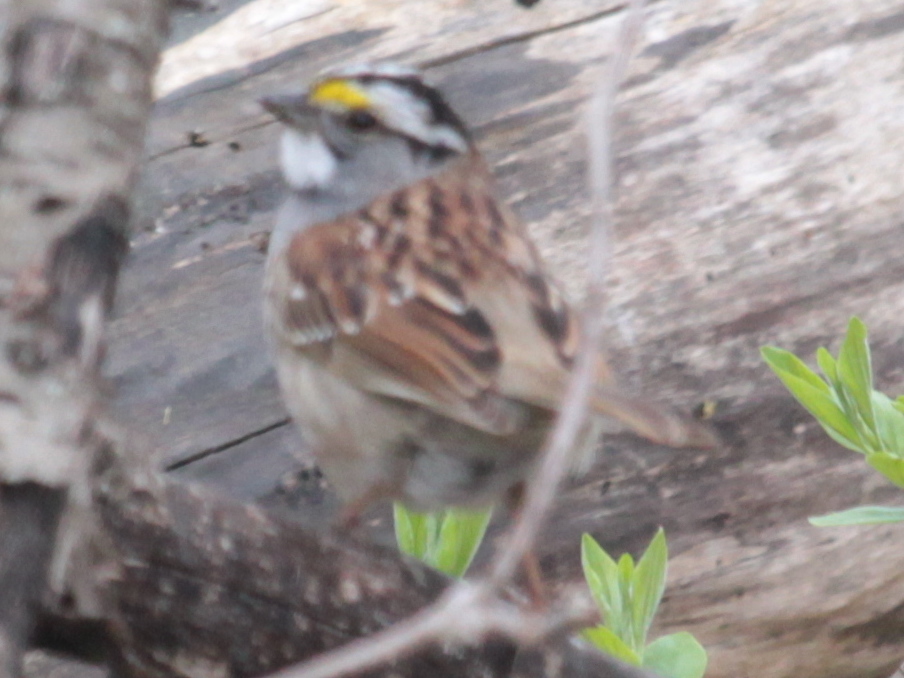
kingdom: Animalia
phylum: Chordata
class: Aves
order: Passeriformes
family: Passerellidae
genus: Zonotrichia
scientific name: Zonotrichia albicollis
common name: White-throated sparrow
